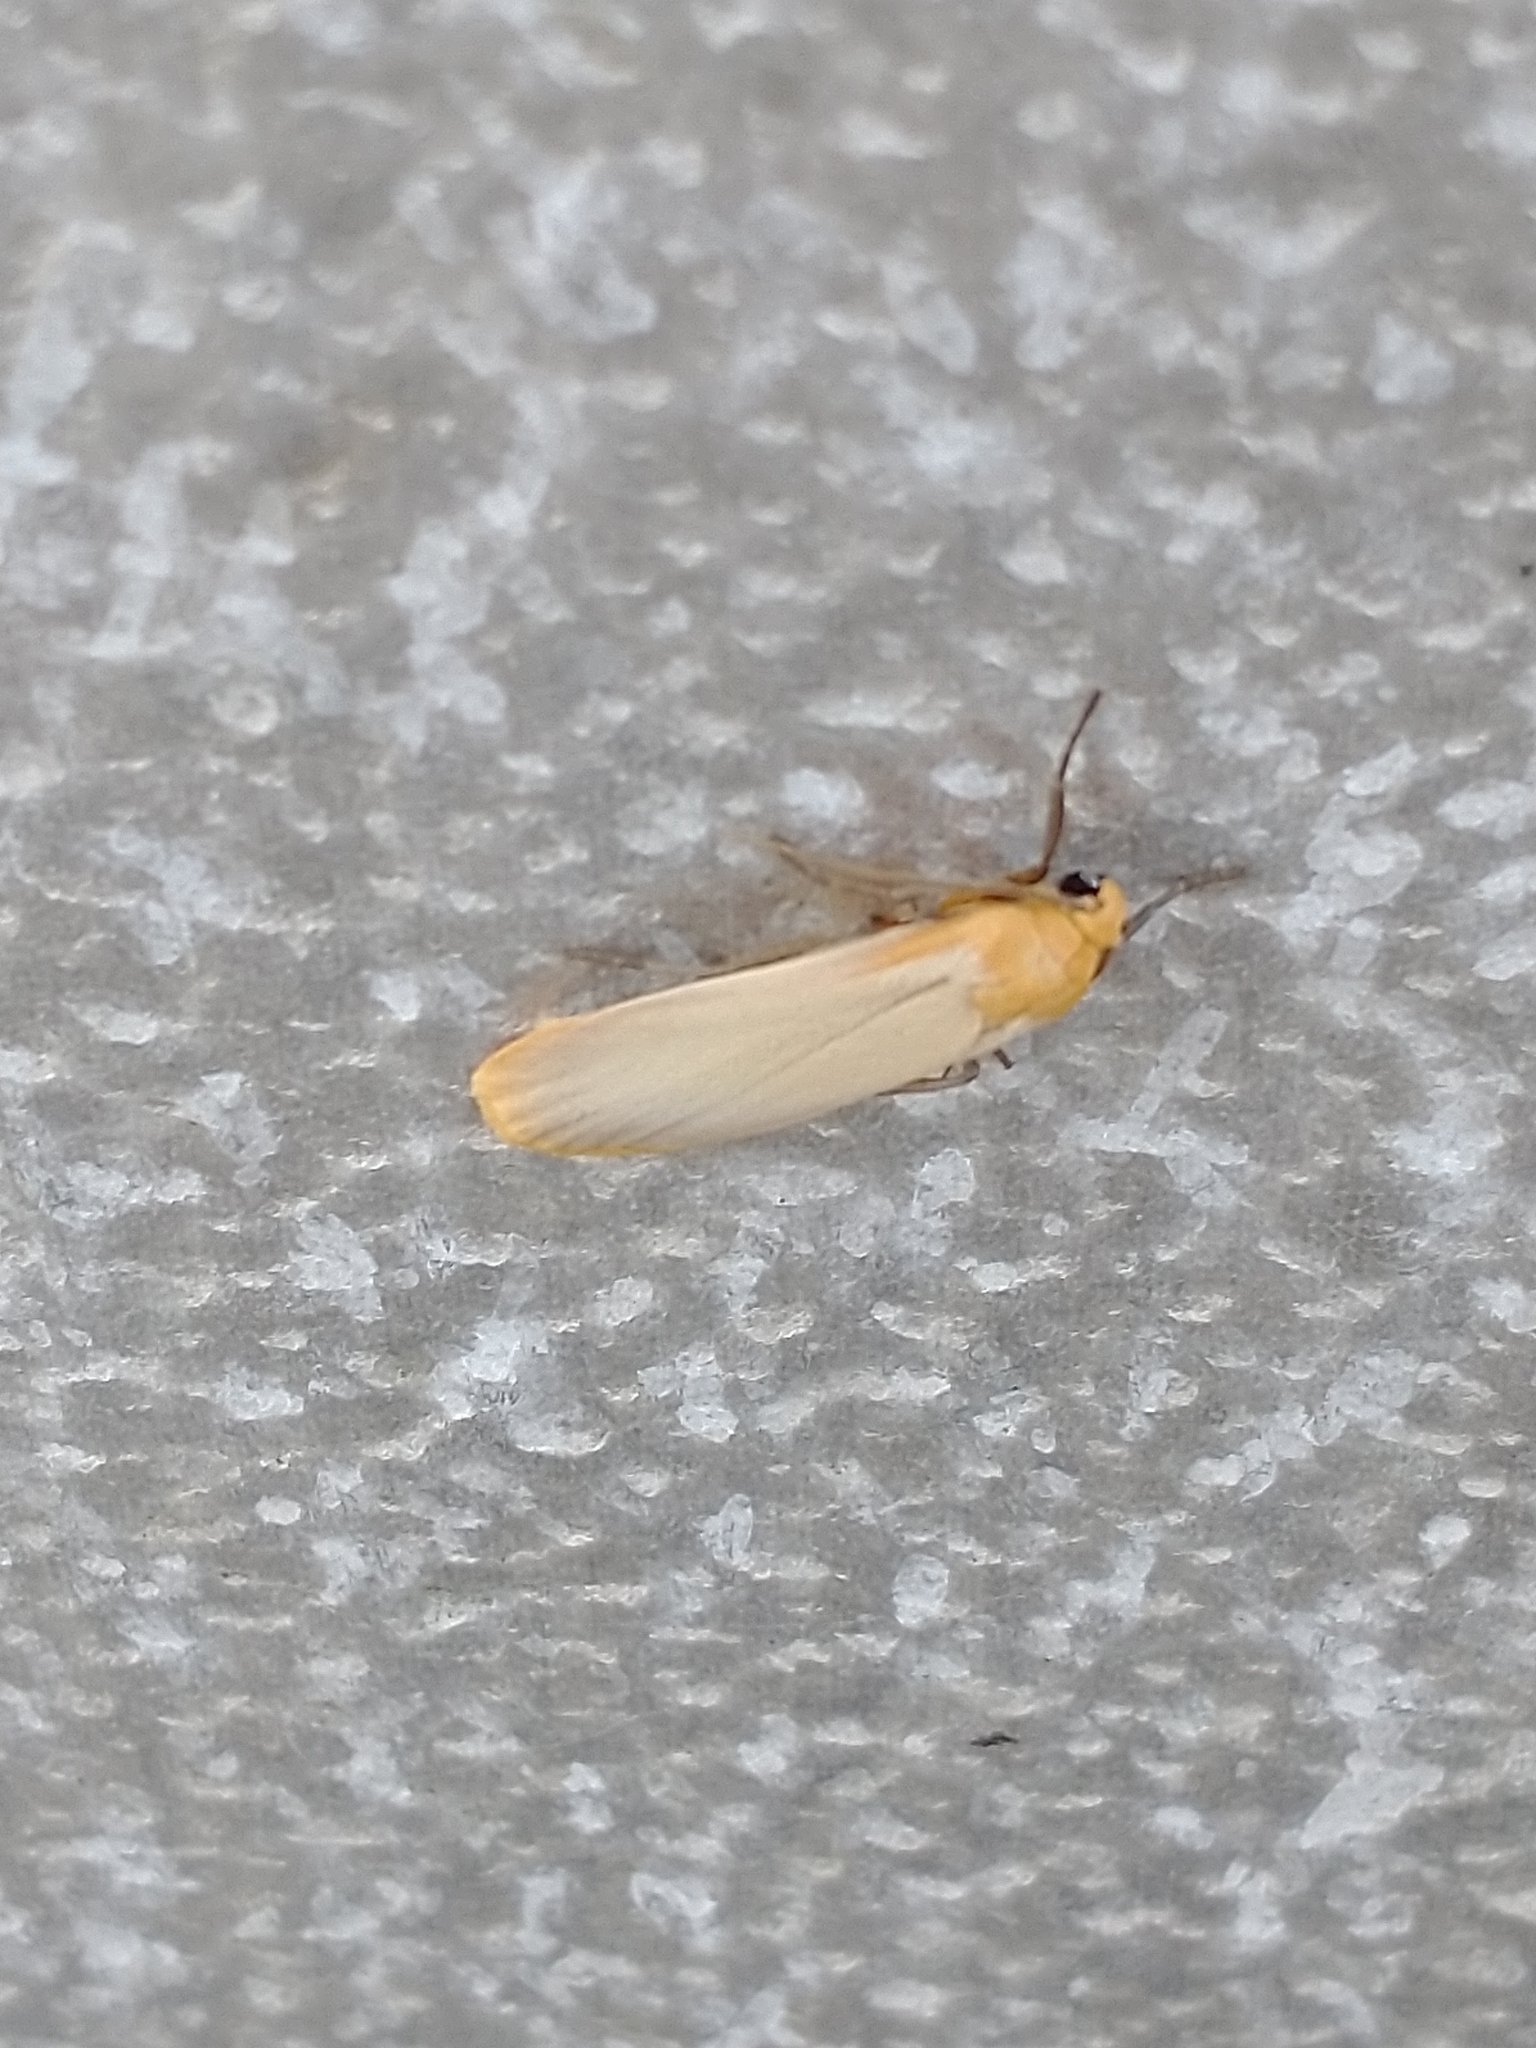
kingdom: Animalia
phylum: Arthropoda
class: Insecta
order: Lepidoptera
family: Erebidae
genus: Katha
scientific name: Katha depressa
